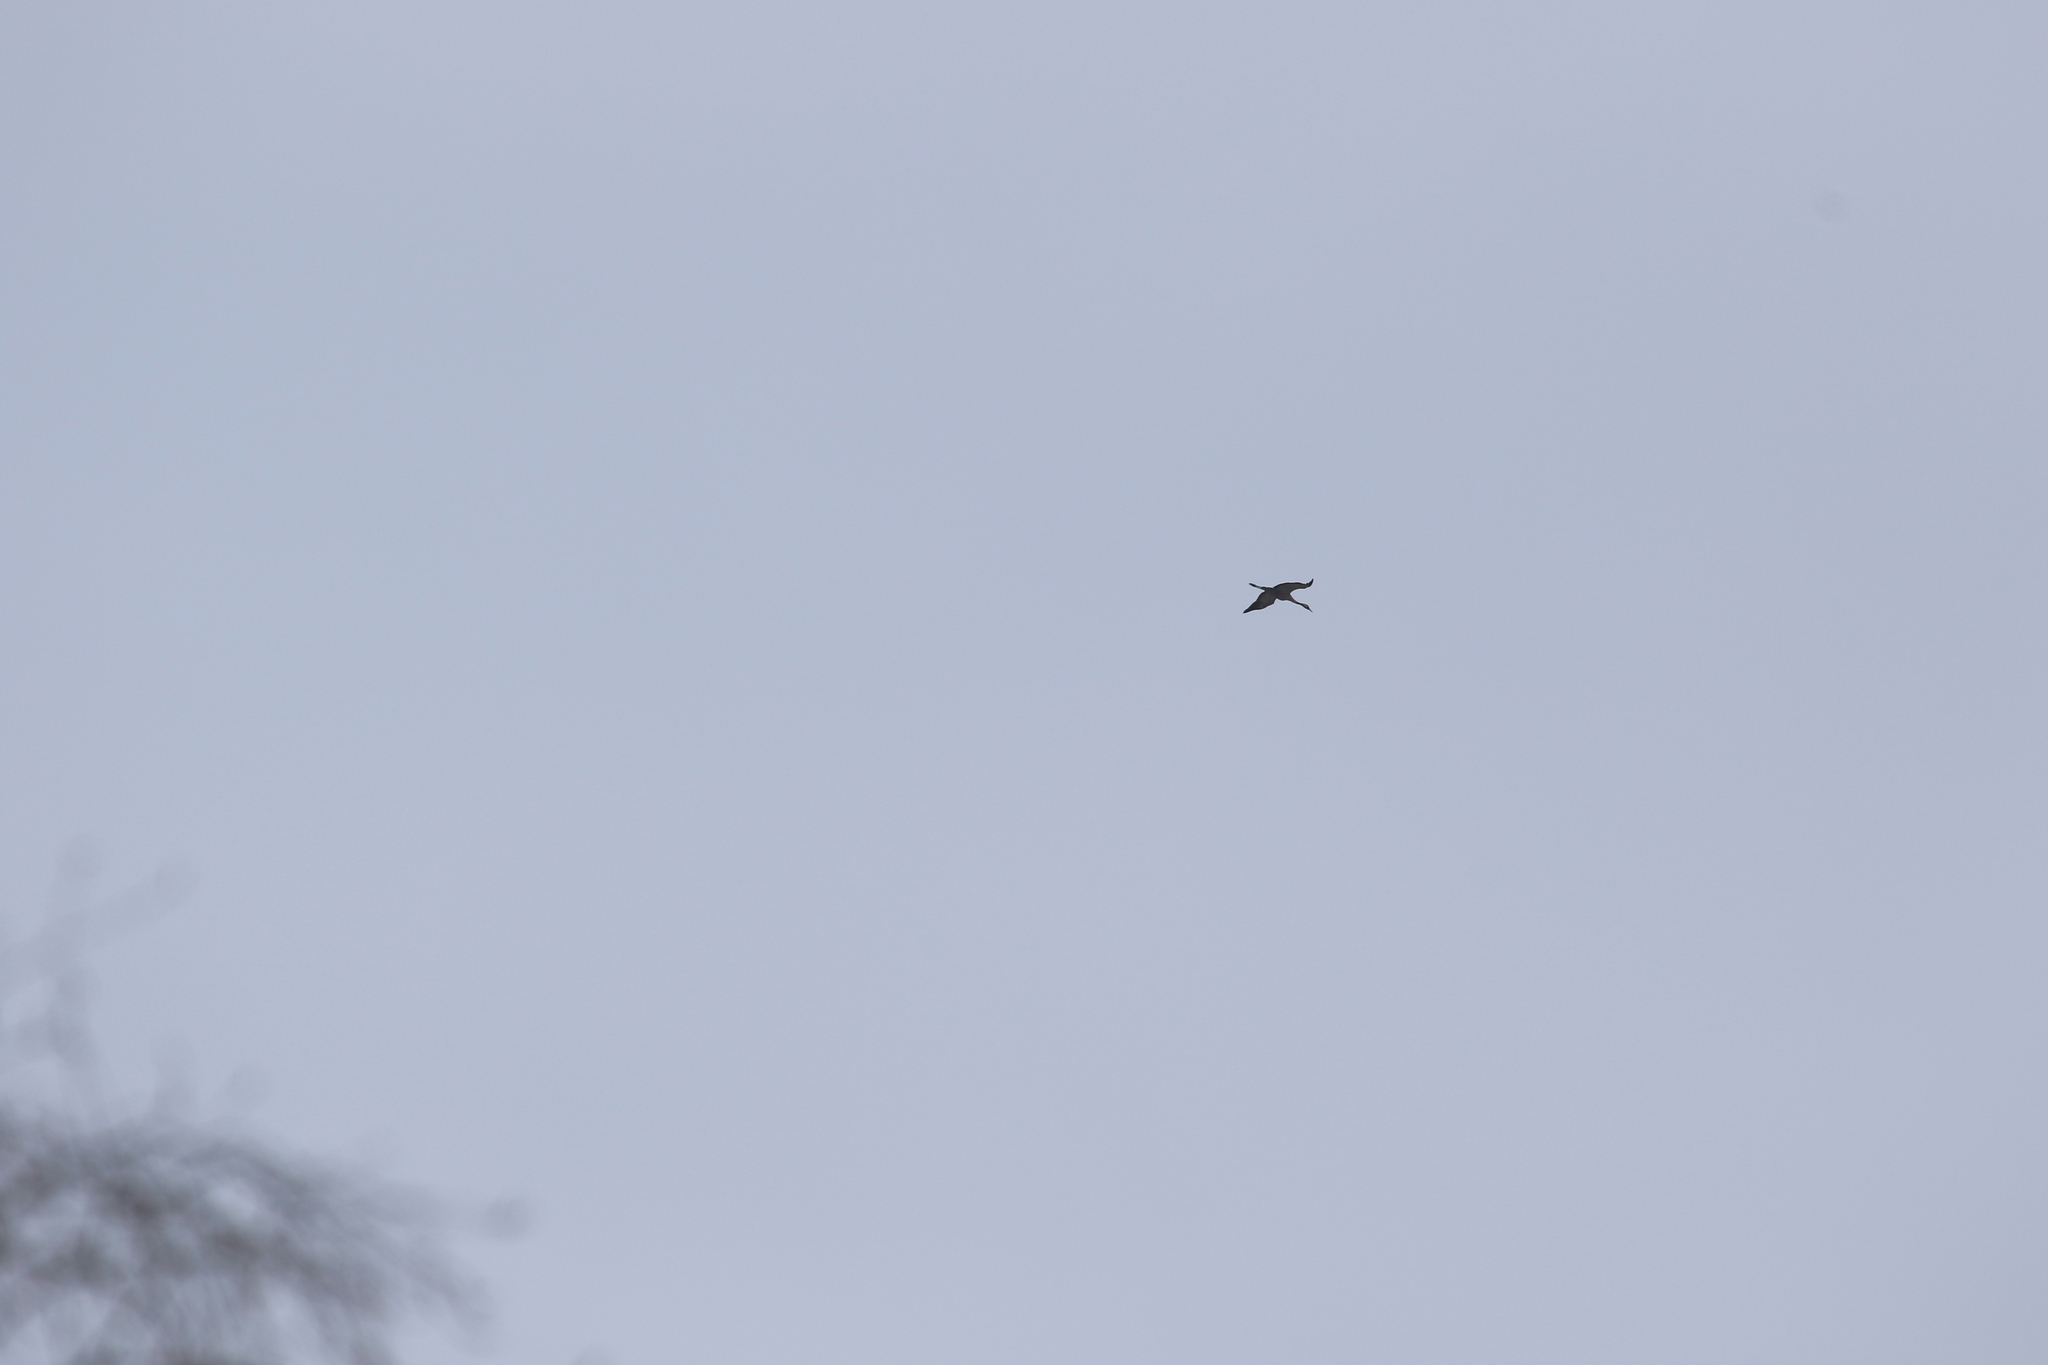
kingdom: Animalia
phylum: Chordata
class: Aves
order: Gruiformes
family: Gruidae
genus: Grus
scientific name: Grus grus
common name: Common crane
